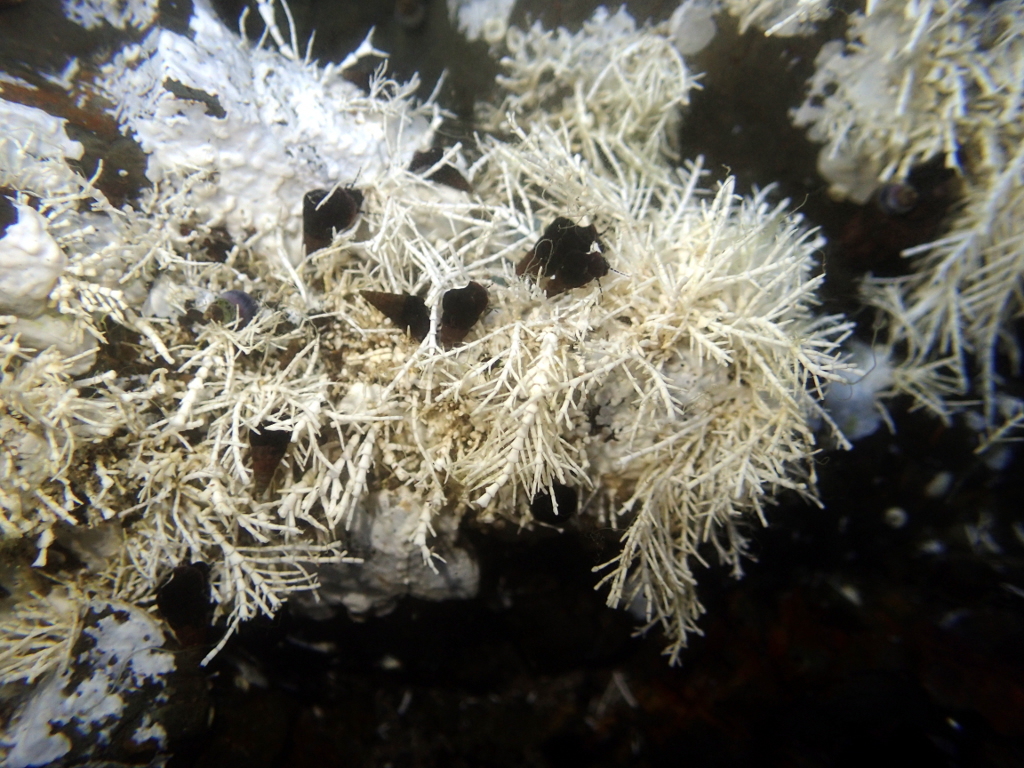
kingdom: Plantae
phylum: Rhodophyta
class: Florideophyceae
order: Corallinales
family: Corallinaceae
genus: Corallina
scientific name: Corallina officinalis
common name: Coral weed
